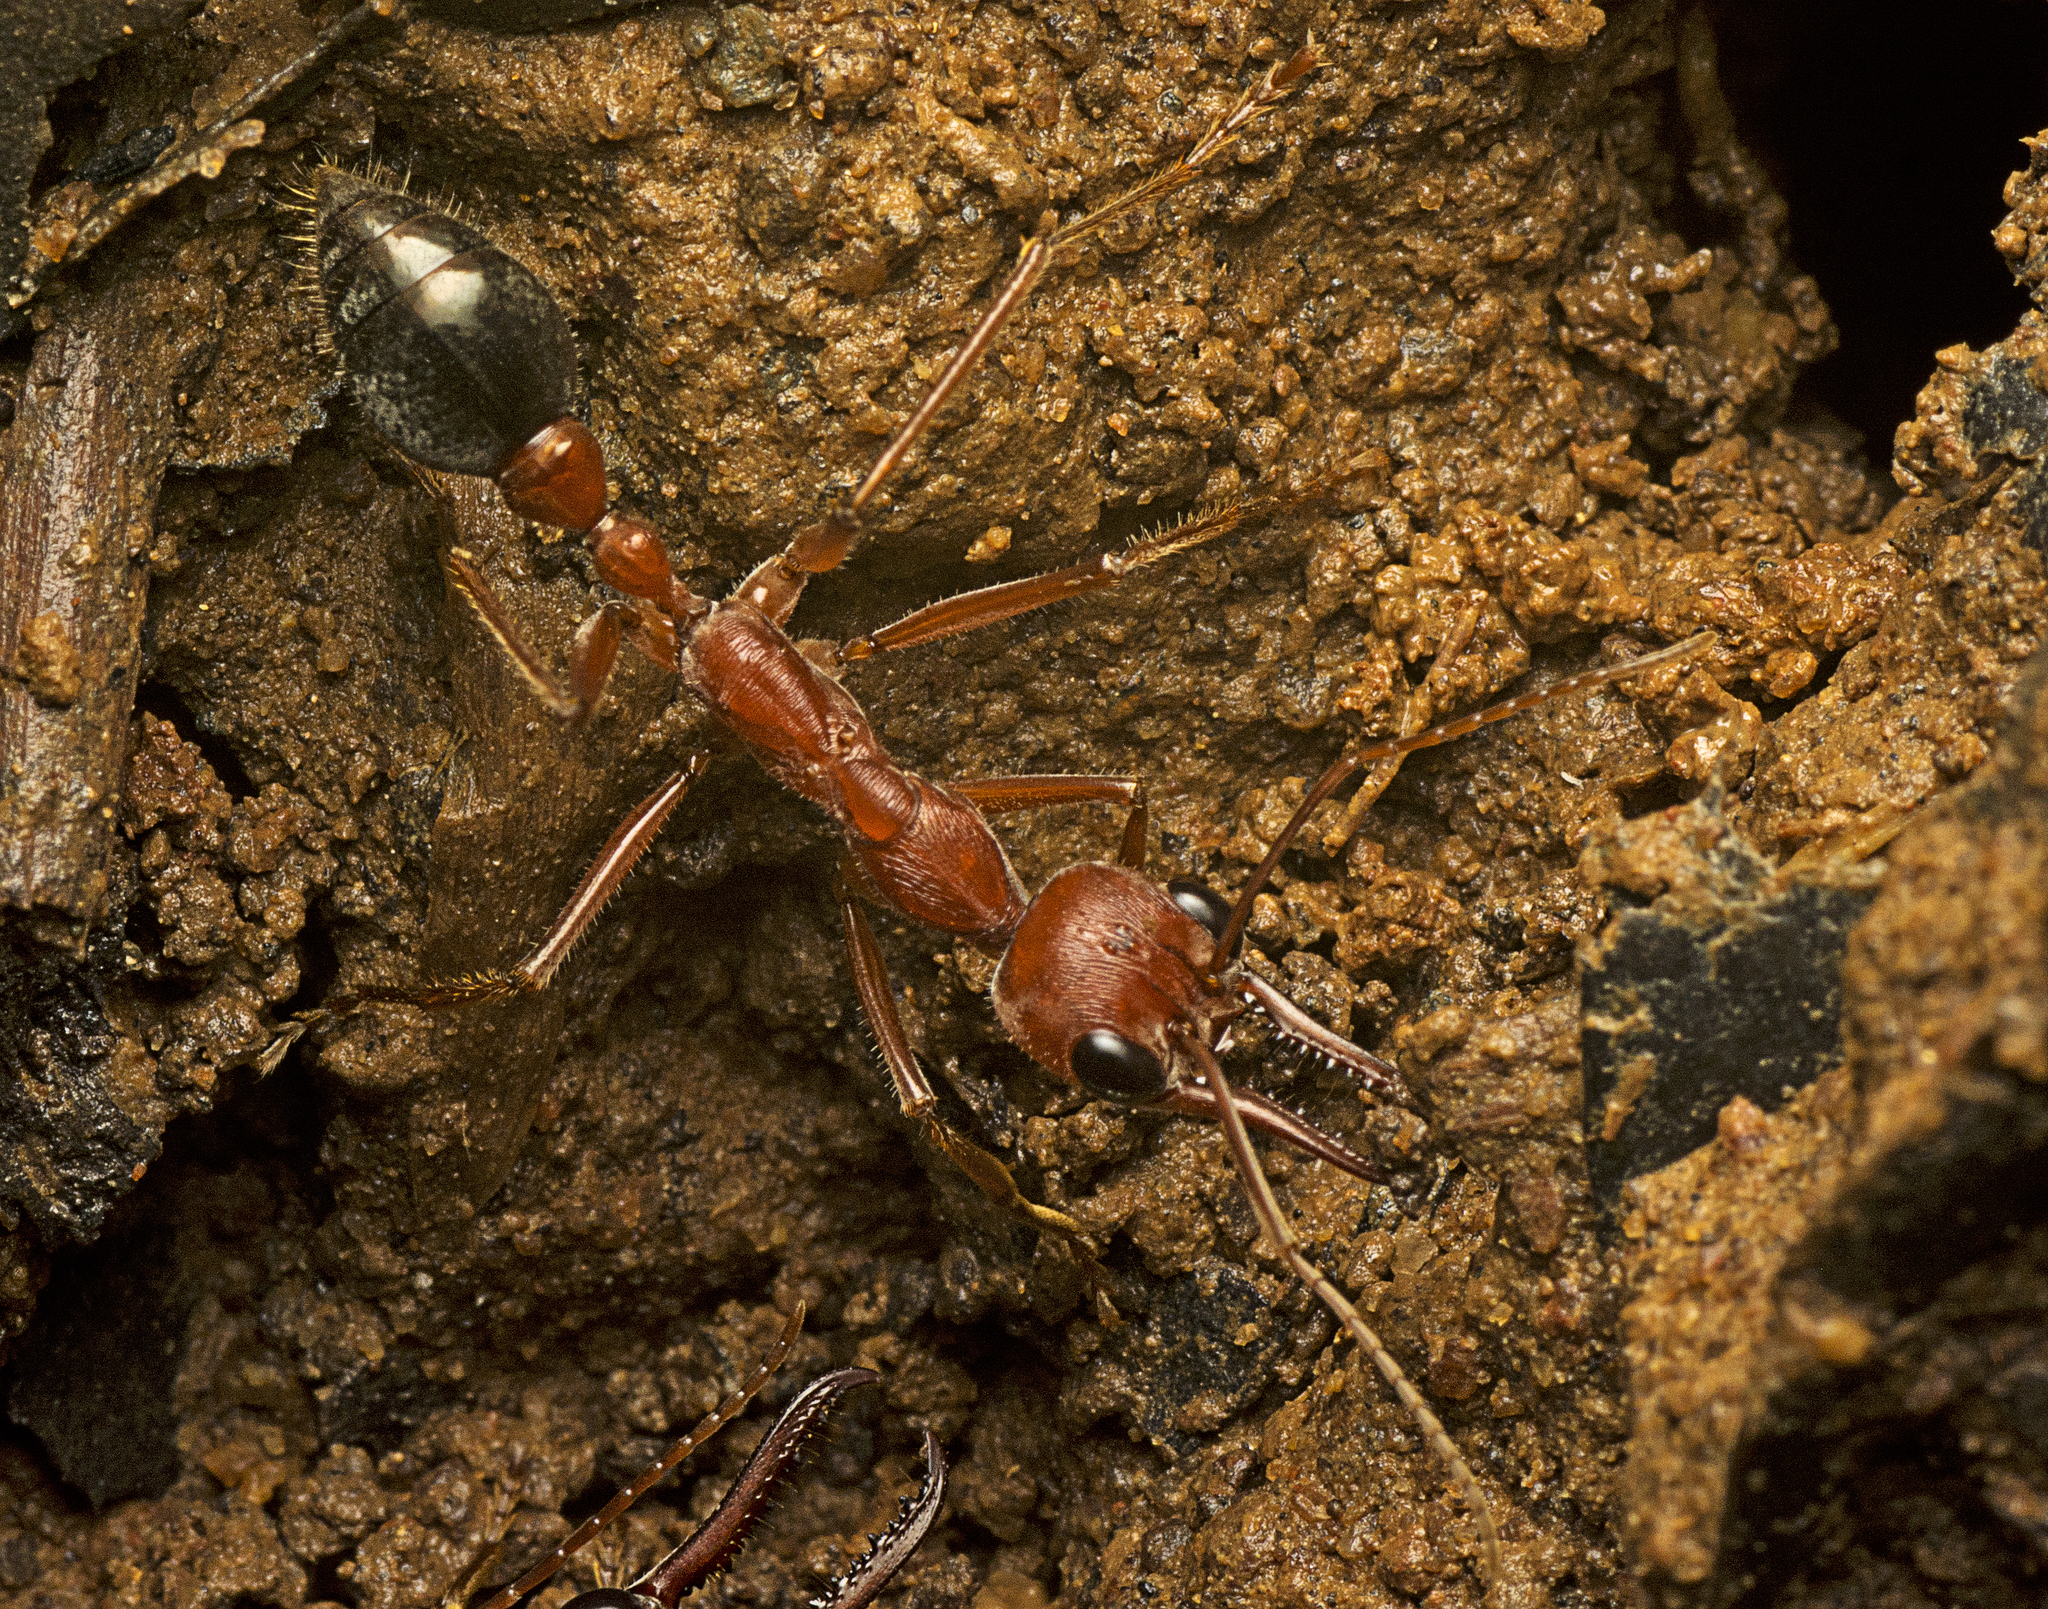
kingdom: Animalia
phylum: Arthropoda
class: Insecta
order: Hymenoptera
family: Formicidae
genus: Myrmecia
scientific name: Myrmecia brevinoda
